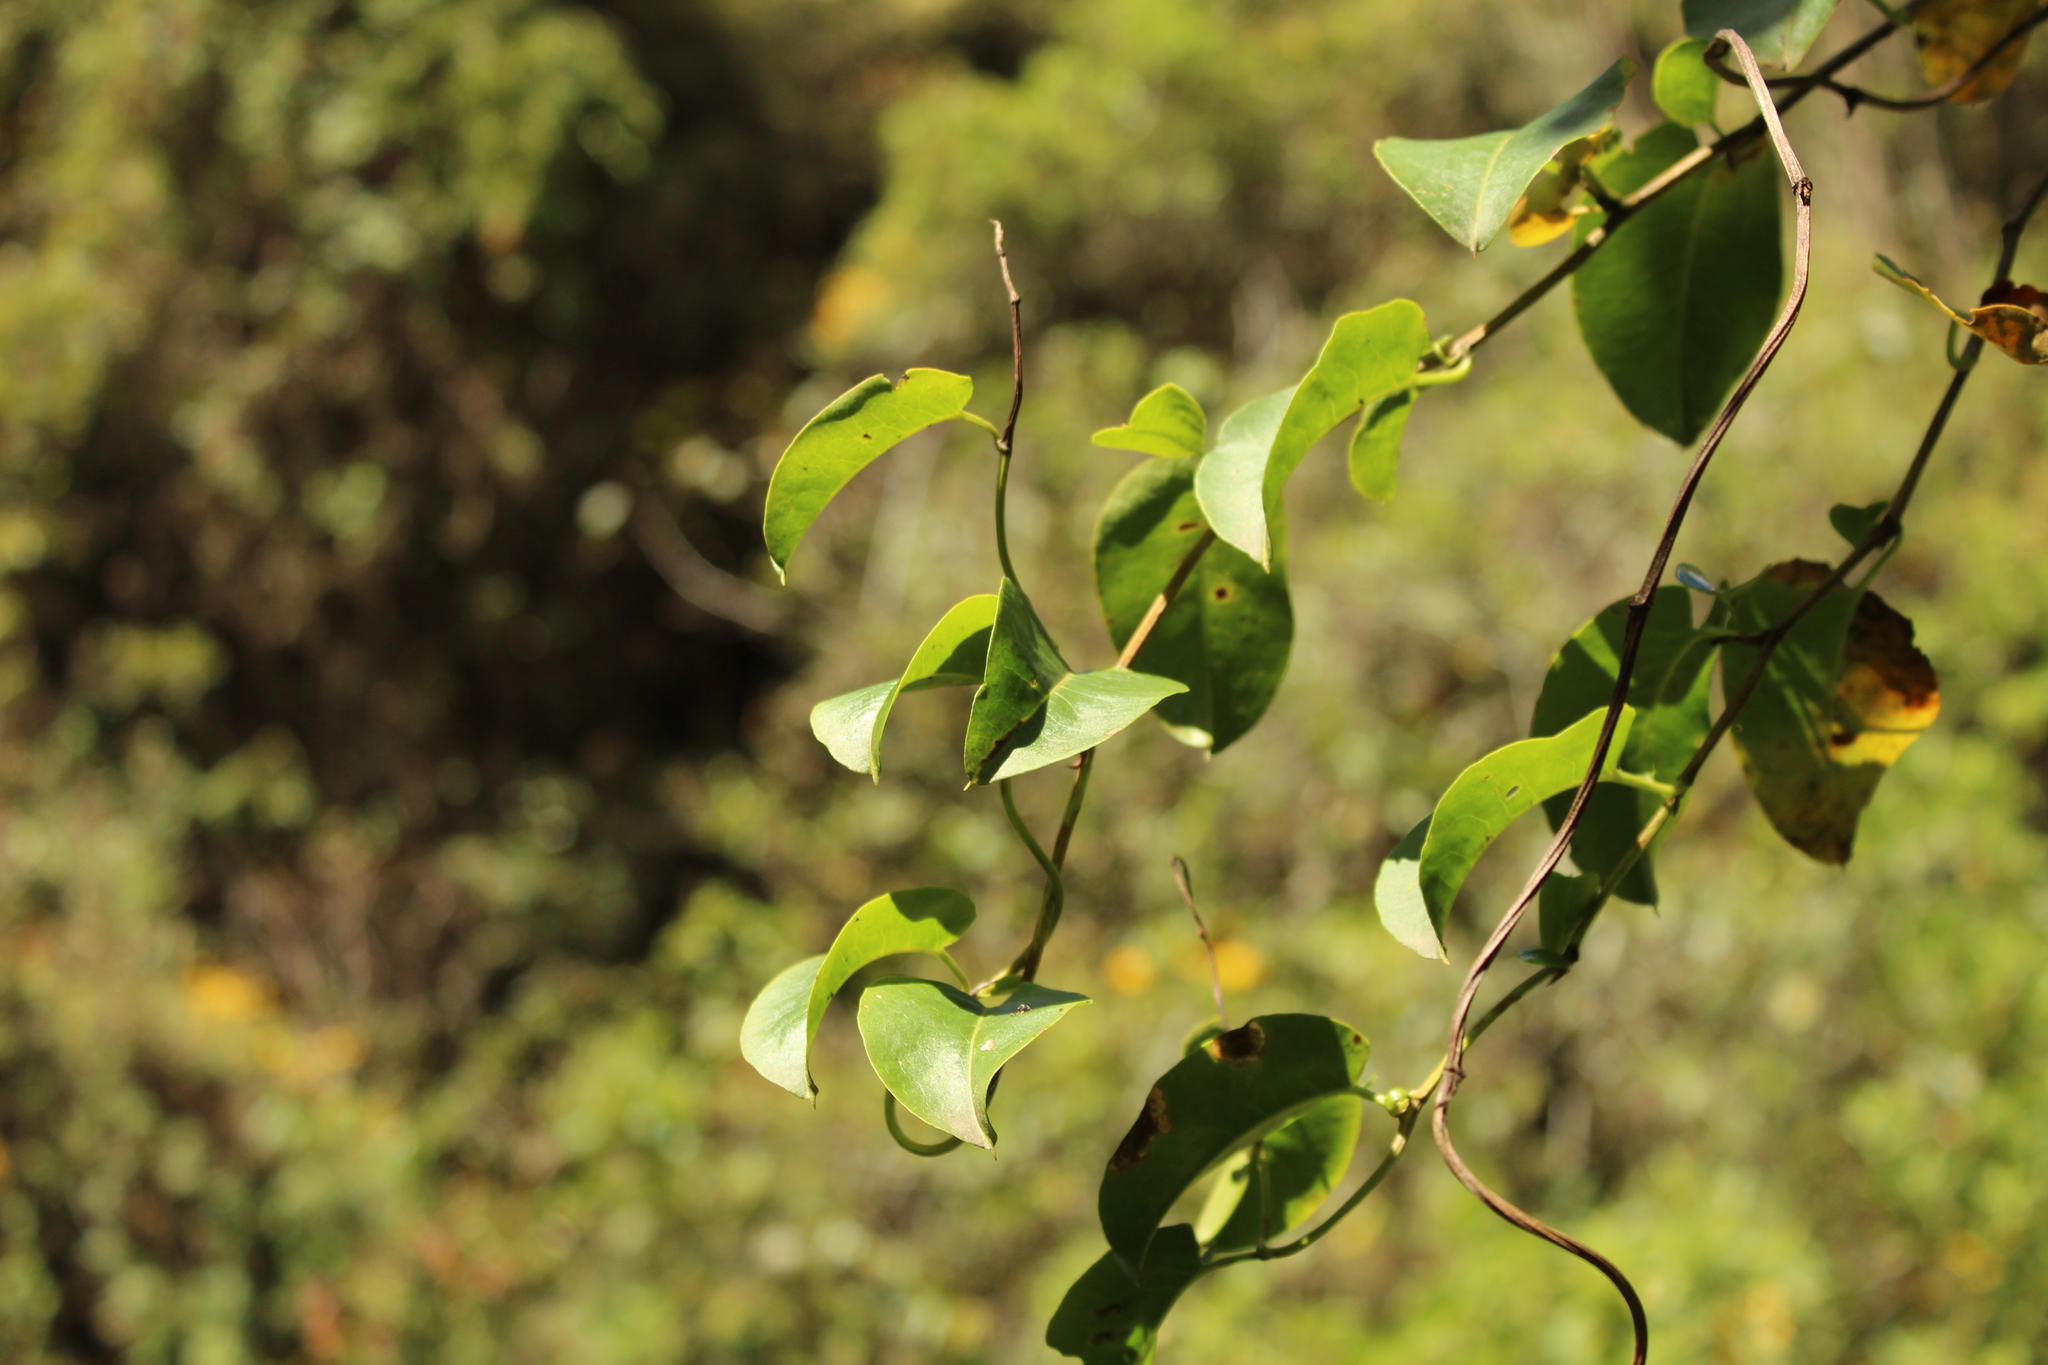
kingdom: Plantae
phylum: Tracheophyta
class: Magnoliopsida
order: Caryophyllales
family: Polygonaceae
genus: Muehlenbeckia
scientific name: Muehlenbeckia tamnifolia
